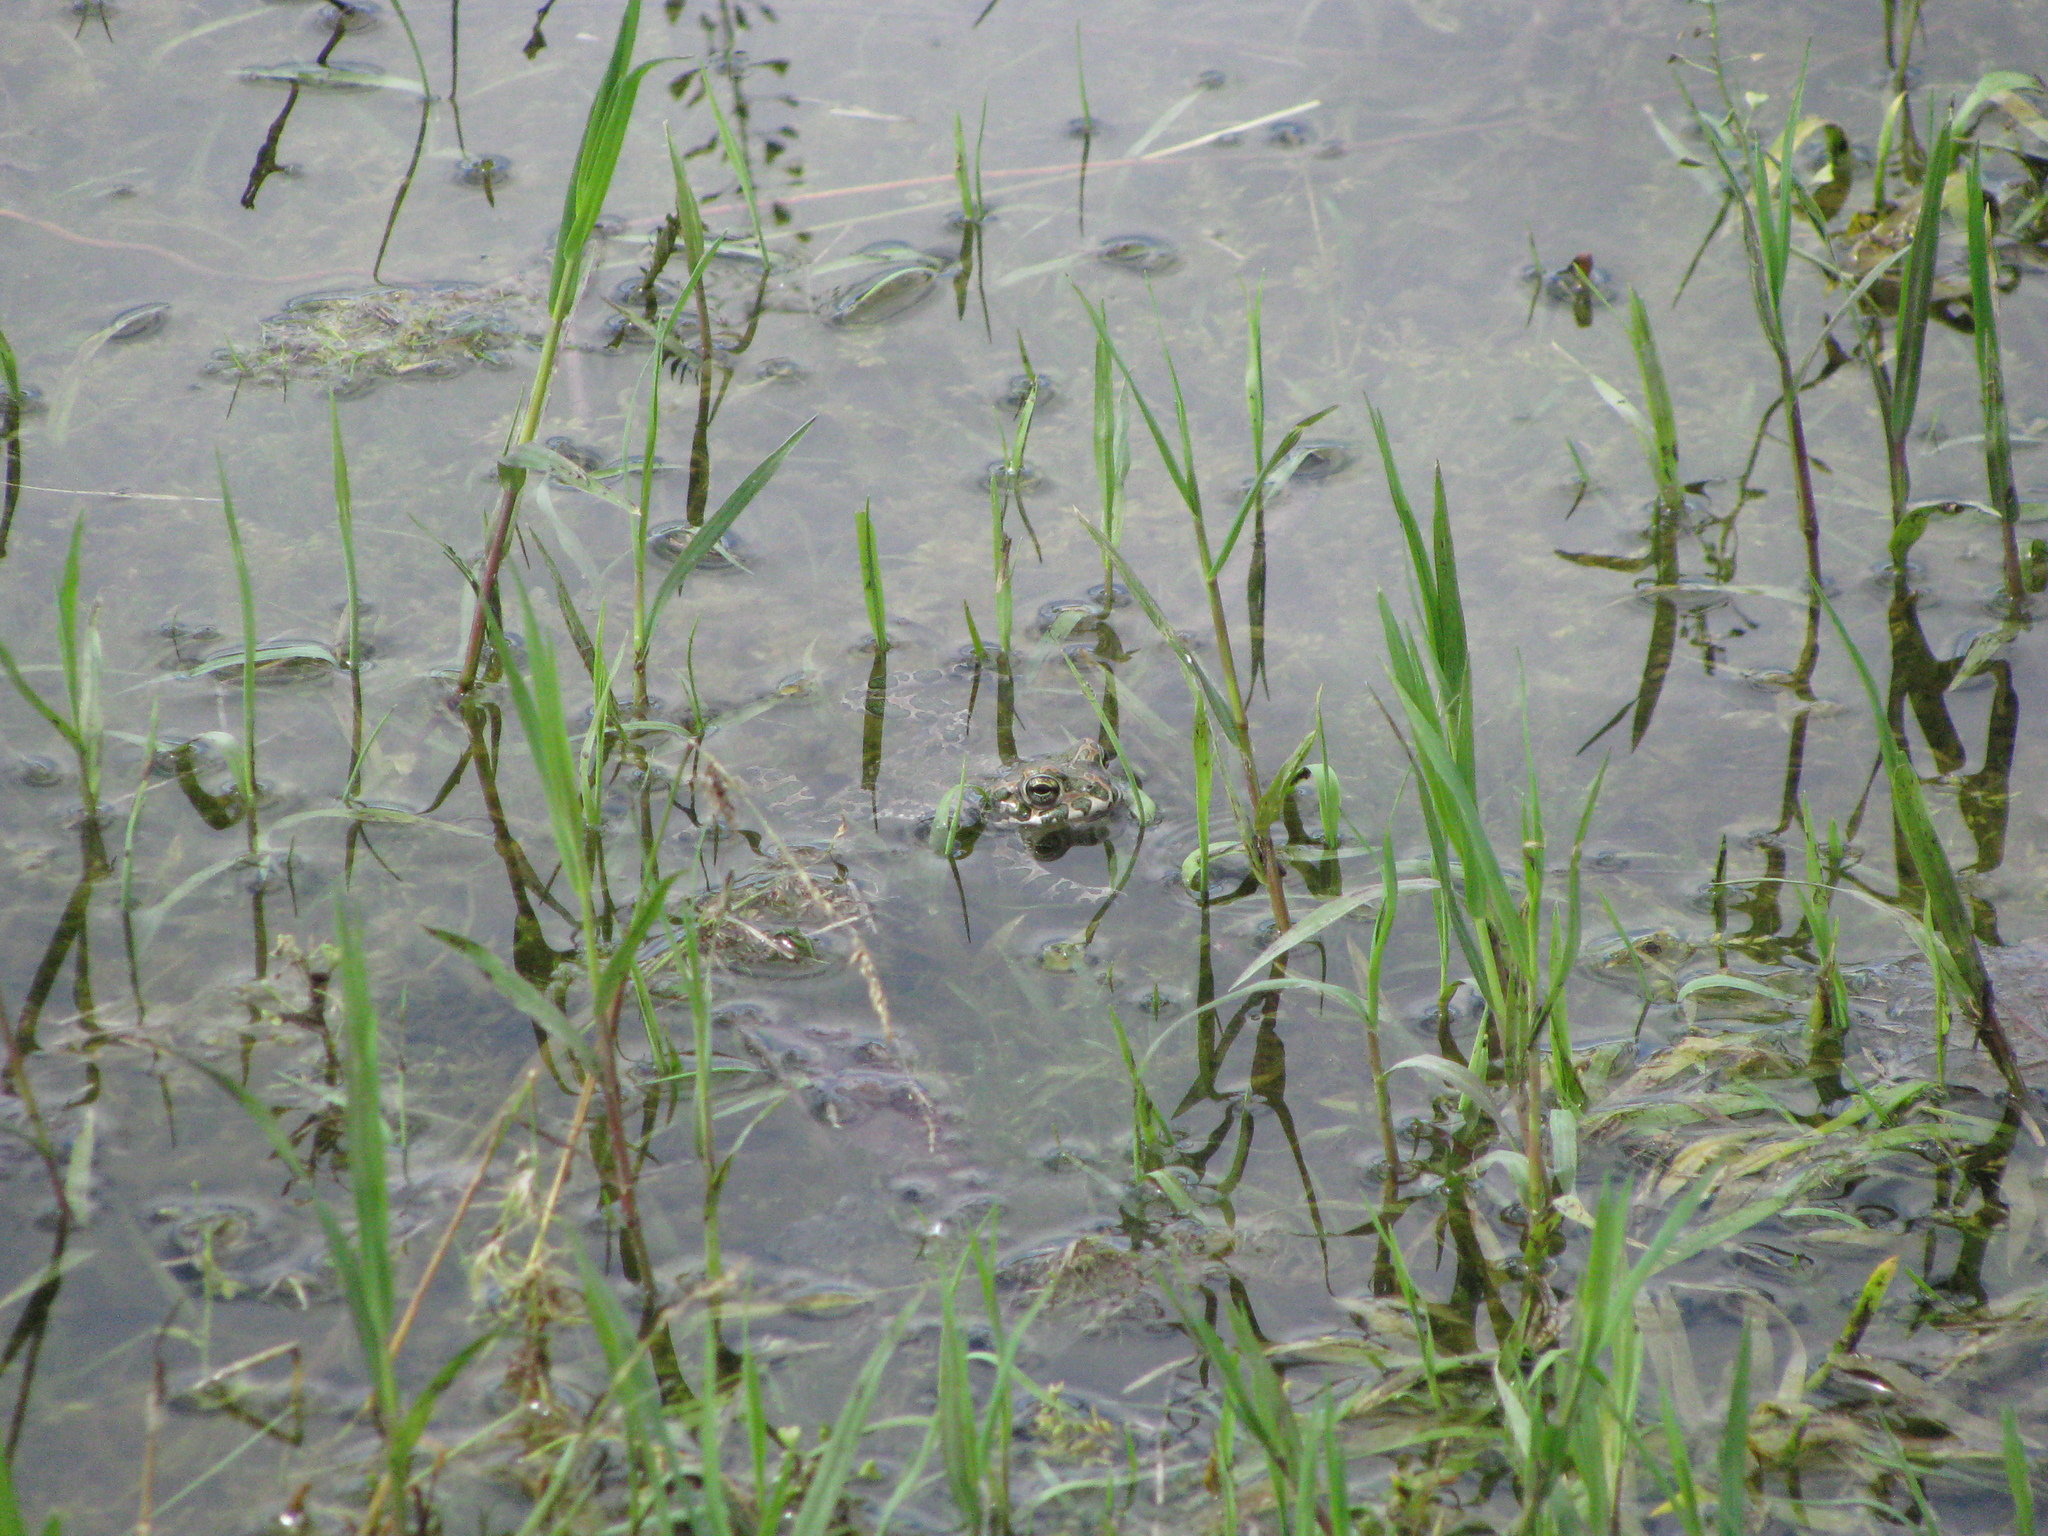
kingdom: Animalia
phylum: Chordata
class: Amphibia
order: Anura
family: Bufonidae
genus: Bufotes
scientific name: Bufotes viridis
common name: European green toad
